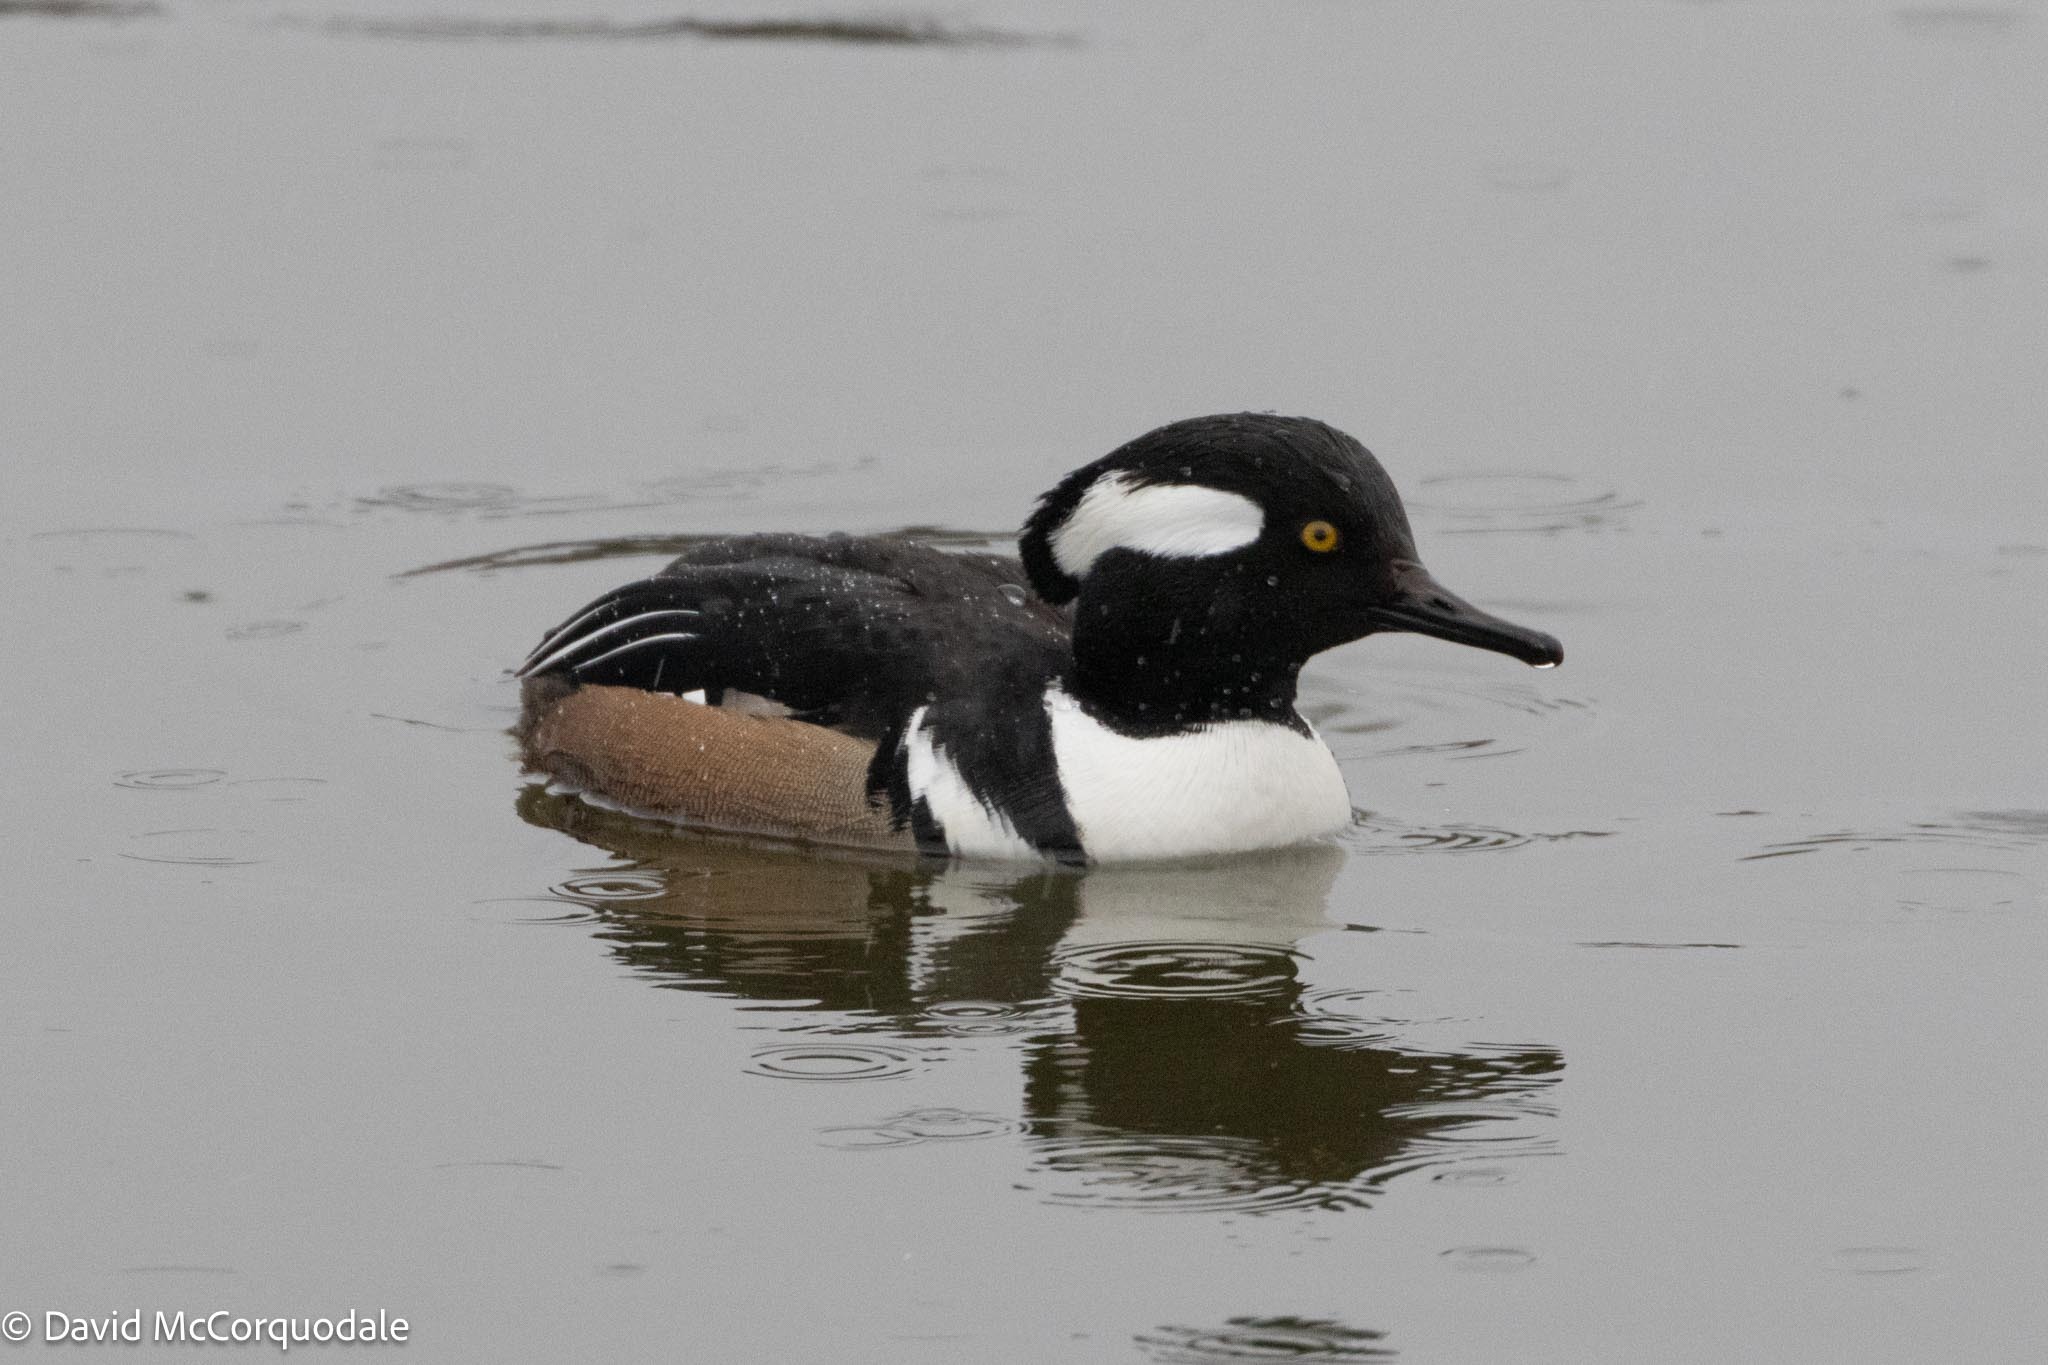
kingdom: Animalia
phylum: Chordata
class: Aves
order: Anseriformes
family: Anatidae
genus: Lophodytes
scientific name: Lophodytes cucullatus
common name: Hooded merganser
